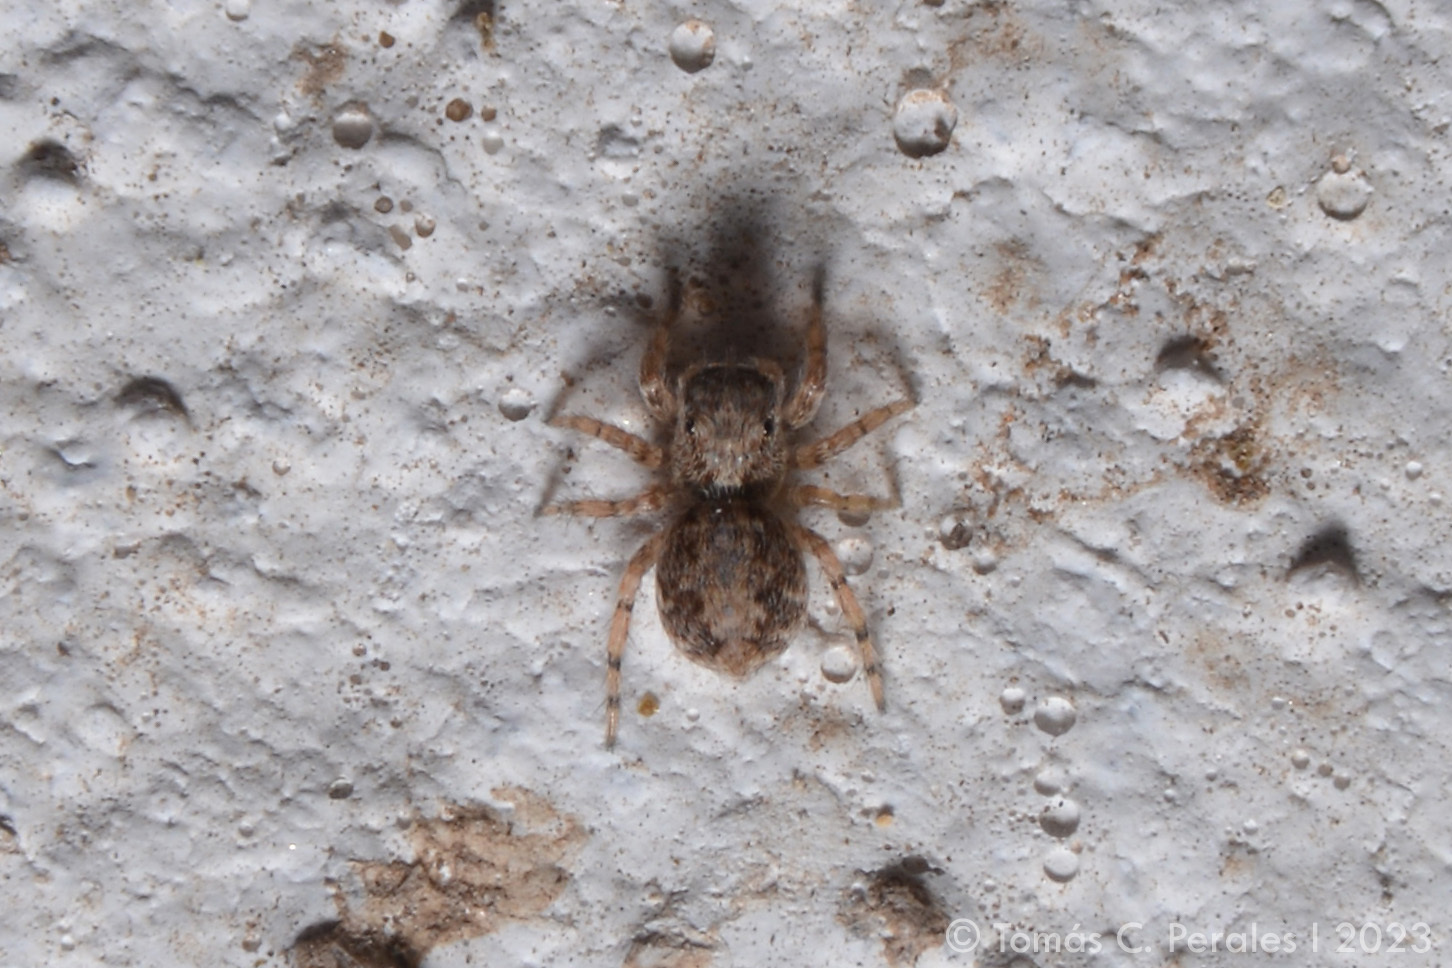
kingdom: Animalia
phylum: Arthropoda
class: Arachnida
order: Araneae
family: Salticidae
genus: Marma
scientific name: Marma argentina
